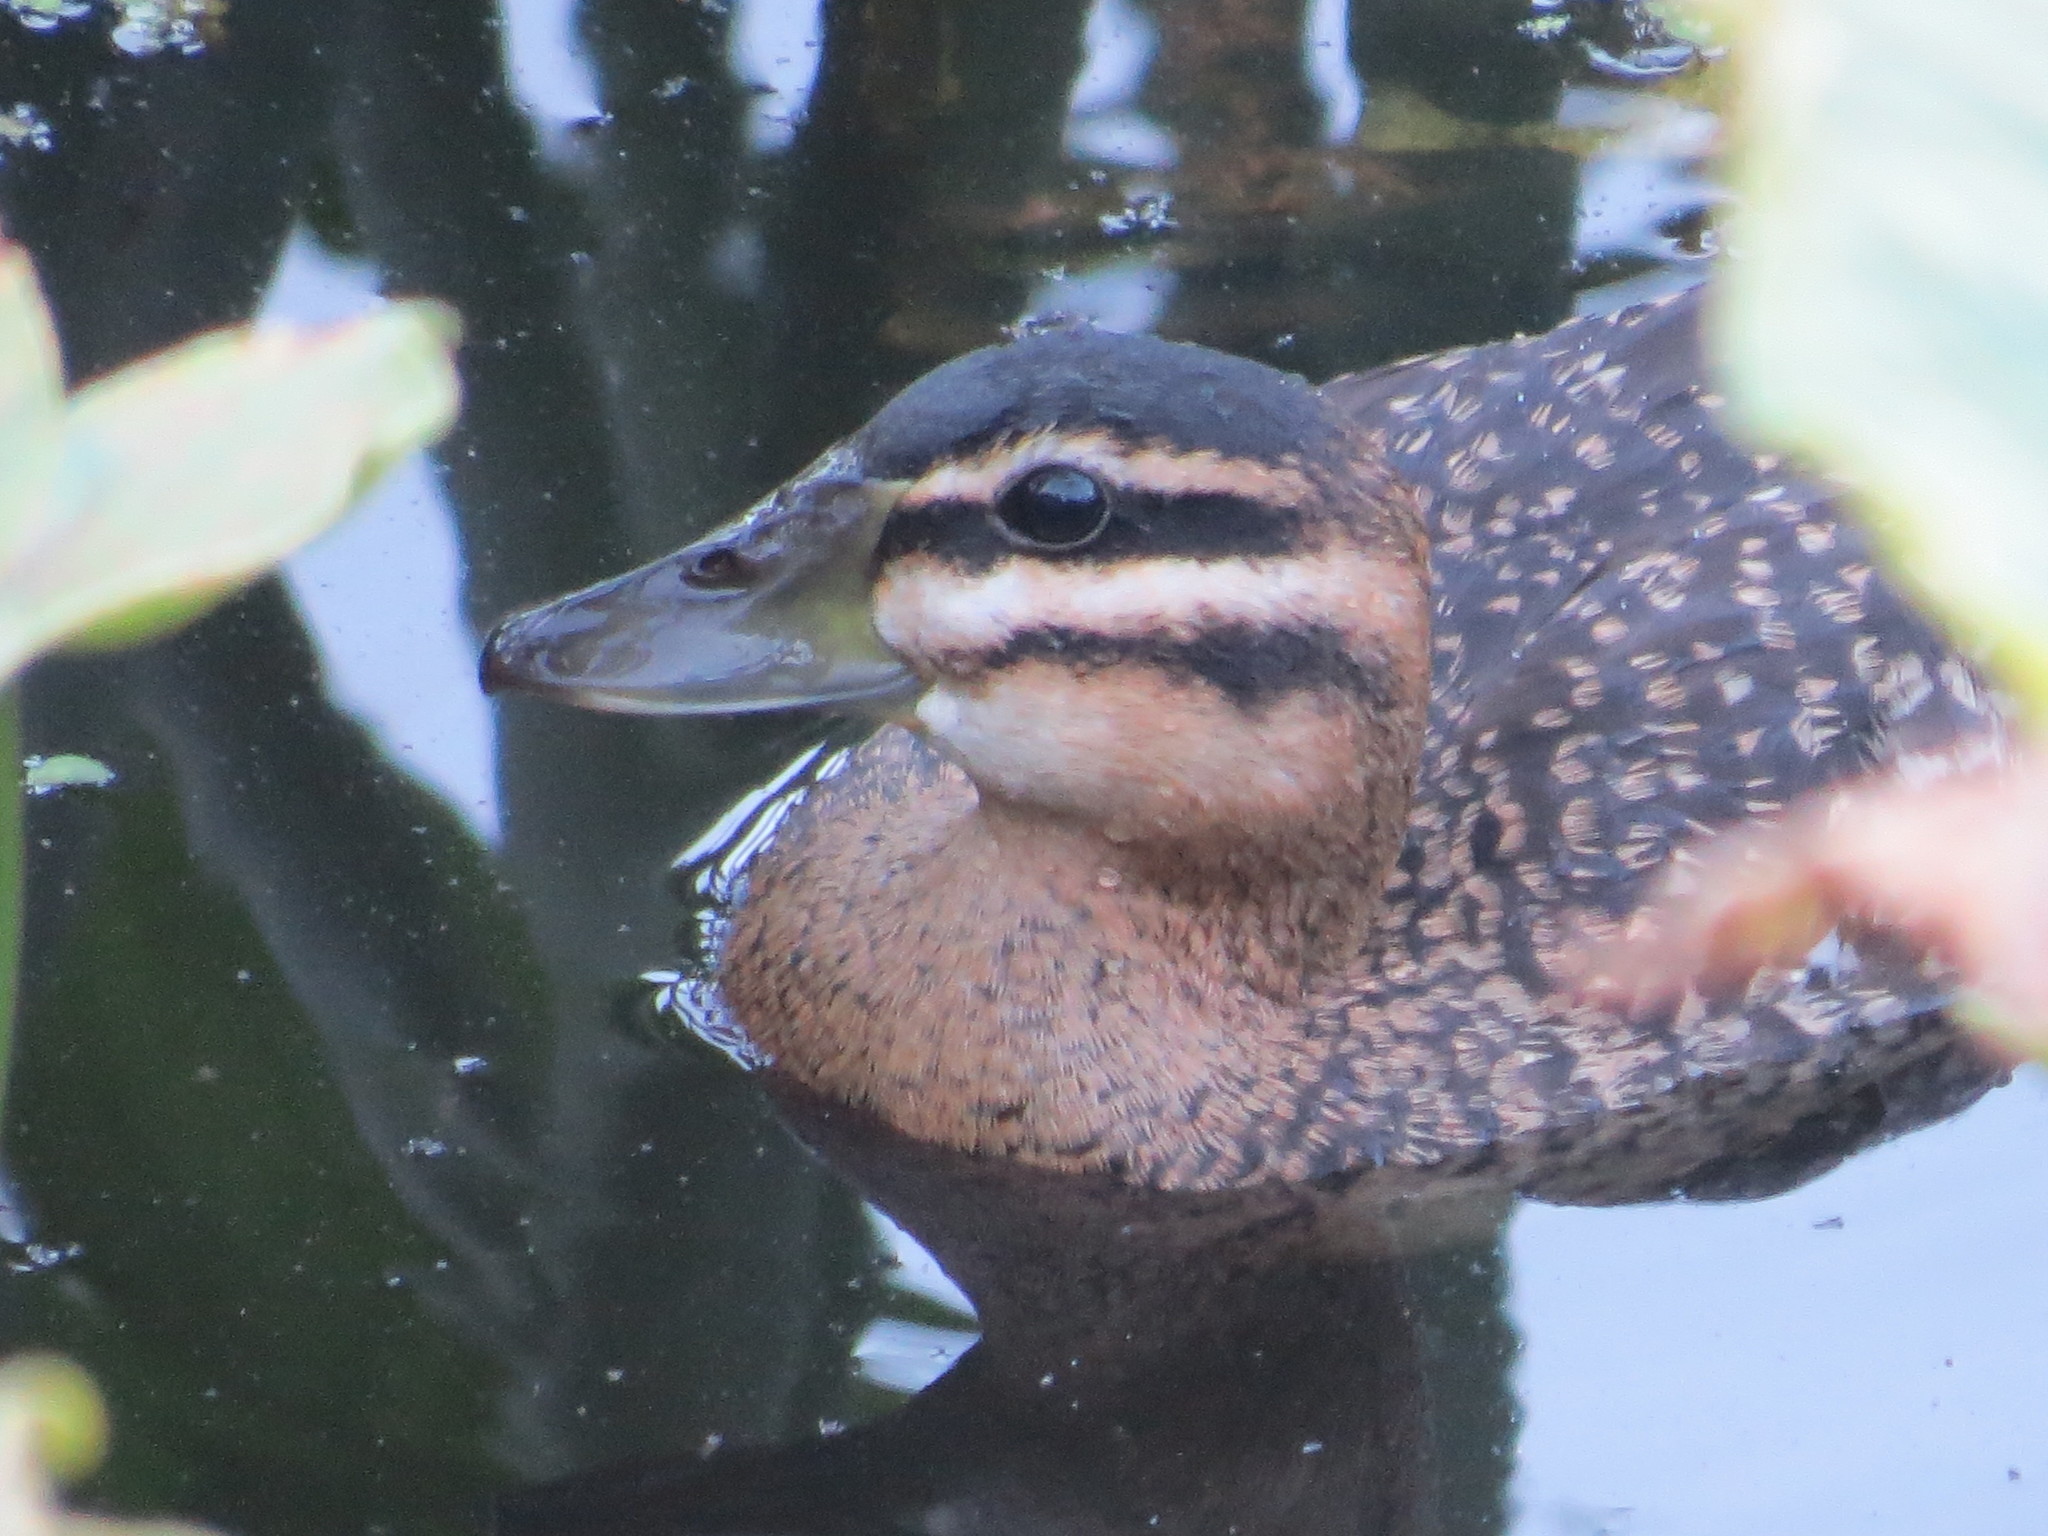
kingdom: Animalia
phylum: Chordata
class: Aves
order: Anseriformes
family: Anatidae
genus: Nomonyx
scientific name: Nomonyx dominicus
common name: Masked duck
